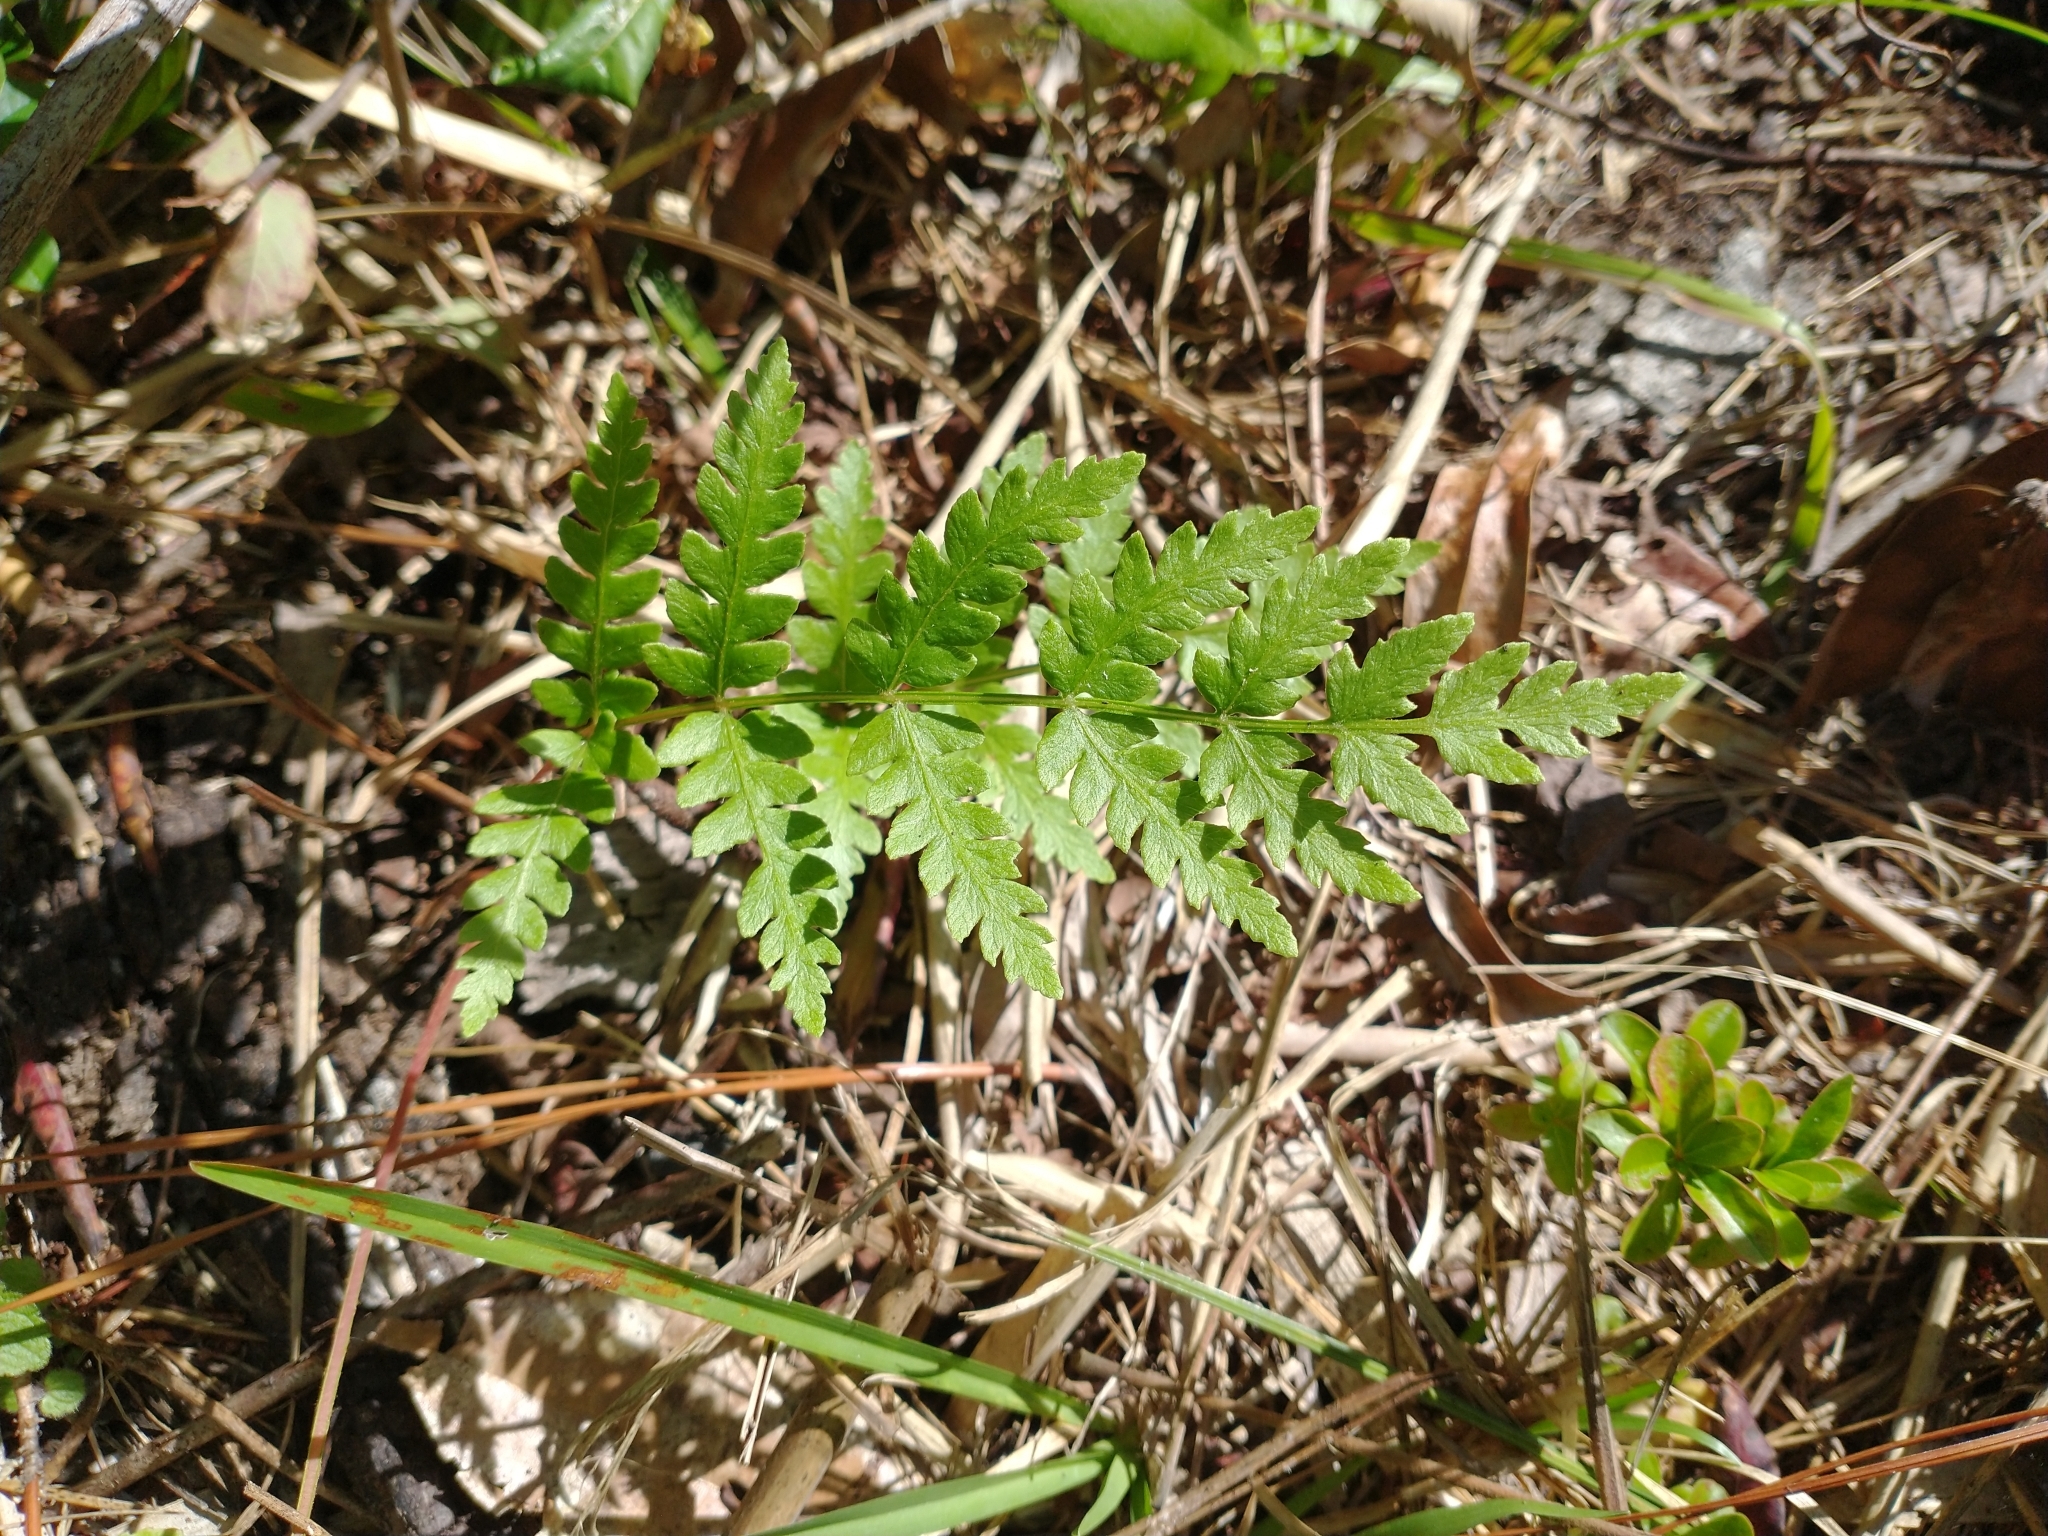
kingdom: Plantae
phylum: Tracheophyta
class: Polypodiopsida
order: Osmundales
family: Osmundaceae
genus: Osmundastrum
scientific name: Osmundastrum cinnamomeum
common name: Cinnamon fern
